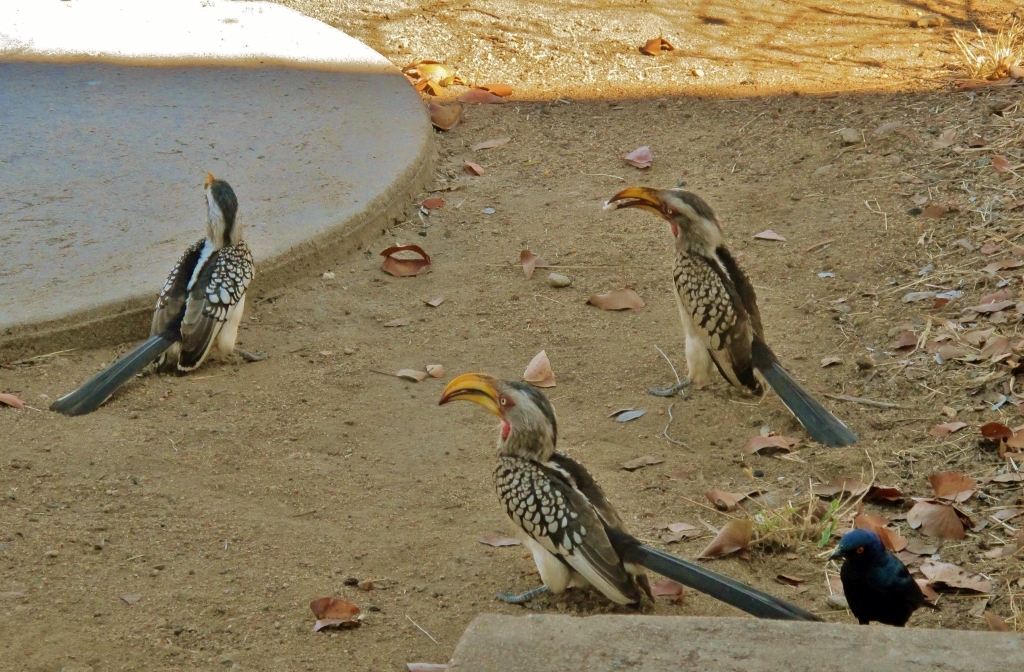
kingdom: Animalia
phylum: Chordata
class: Aves
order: Bucerotiformes
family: Bucerotidae
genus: Tockus
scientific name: Tockus leucomelas
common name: Southern yellow-billed hornbill
